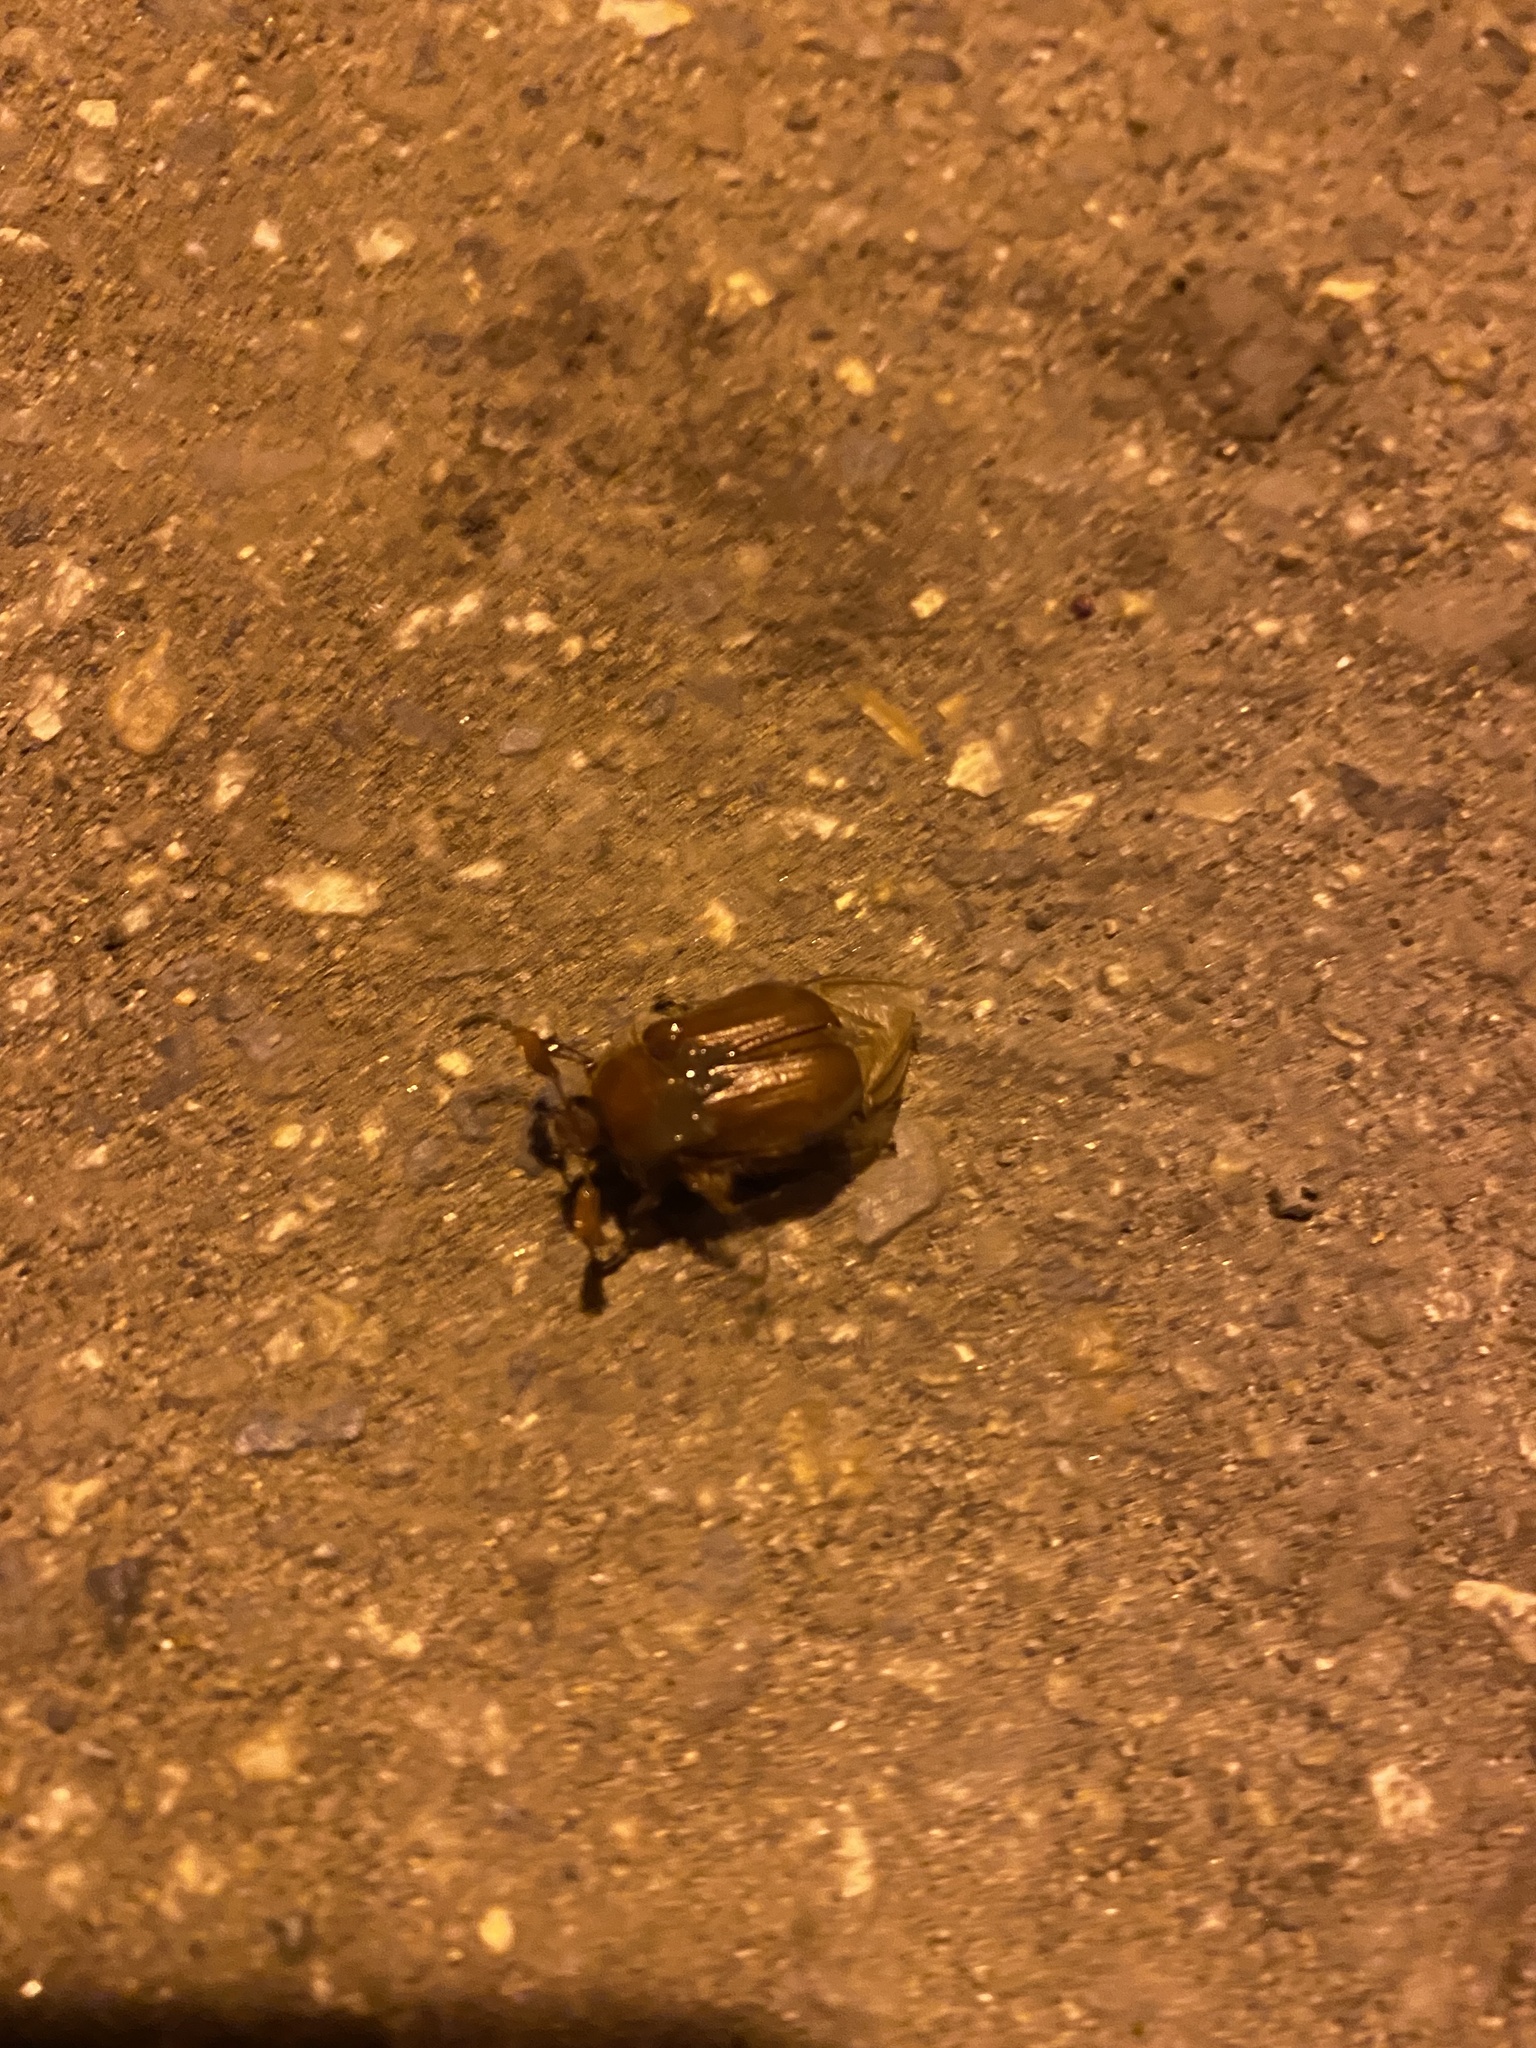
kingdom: Animalia
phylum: Arthropoda
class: Insecta
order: Coleoptera
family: Scarabaeidae
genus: Holochelus
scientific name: Holochelus aequinoctialis
